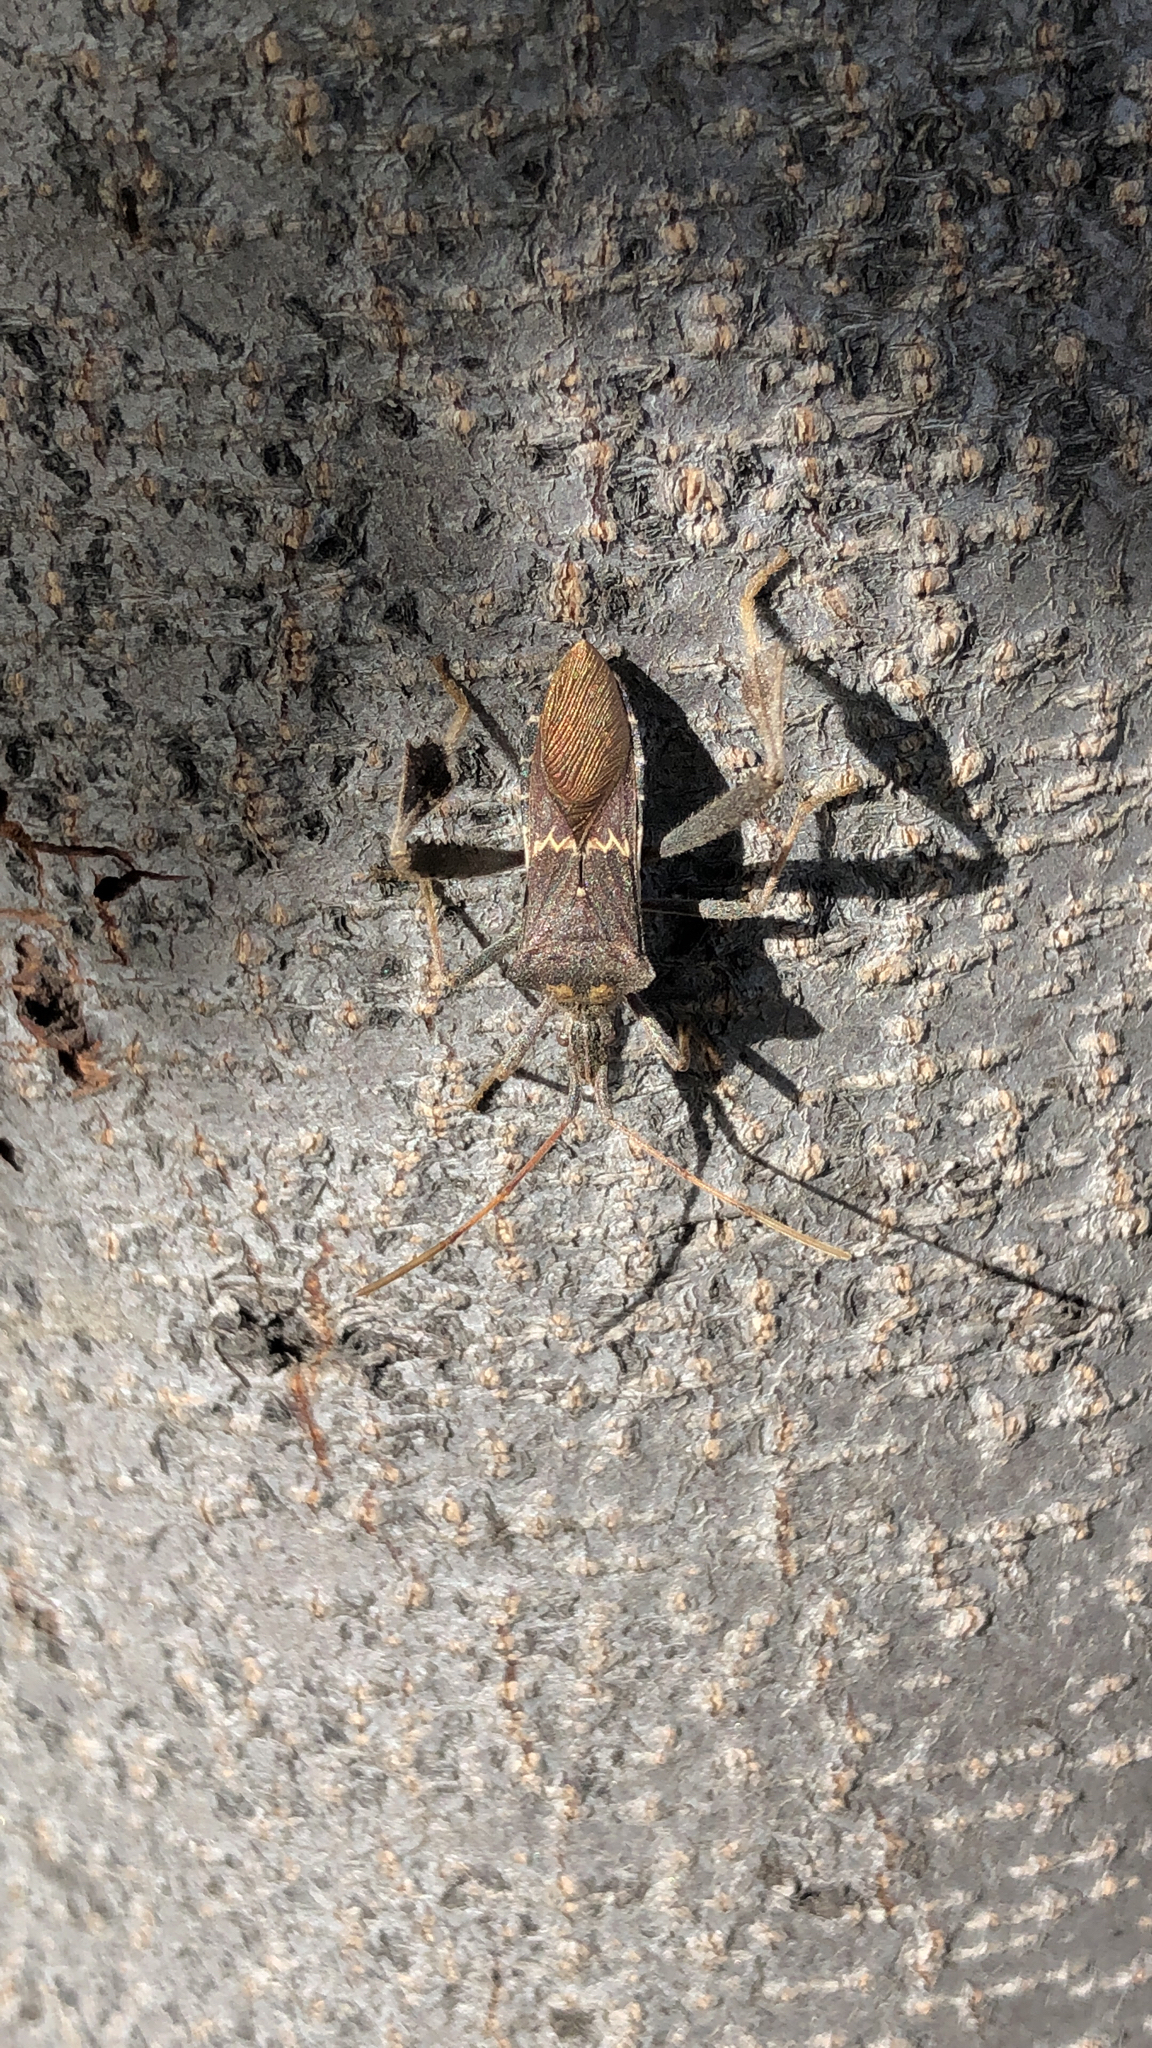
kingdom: Animalia
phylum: Arthropoda
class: Insecta
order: Hemiptera
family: Coreidae
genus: Leptoglossus
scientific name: Leptoglossus zonatus
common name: Large-legged bug
